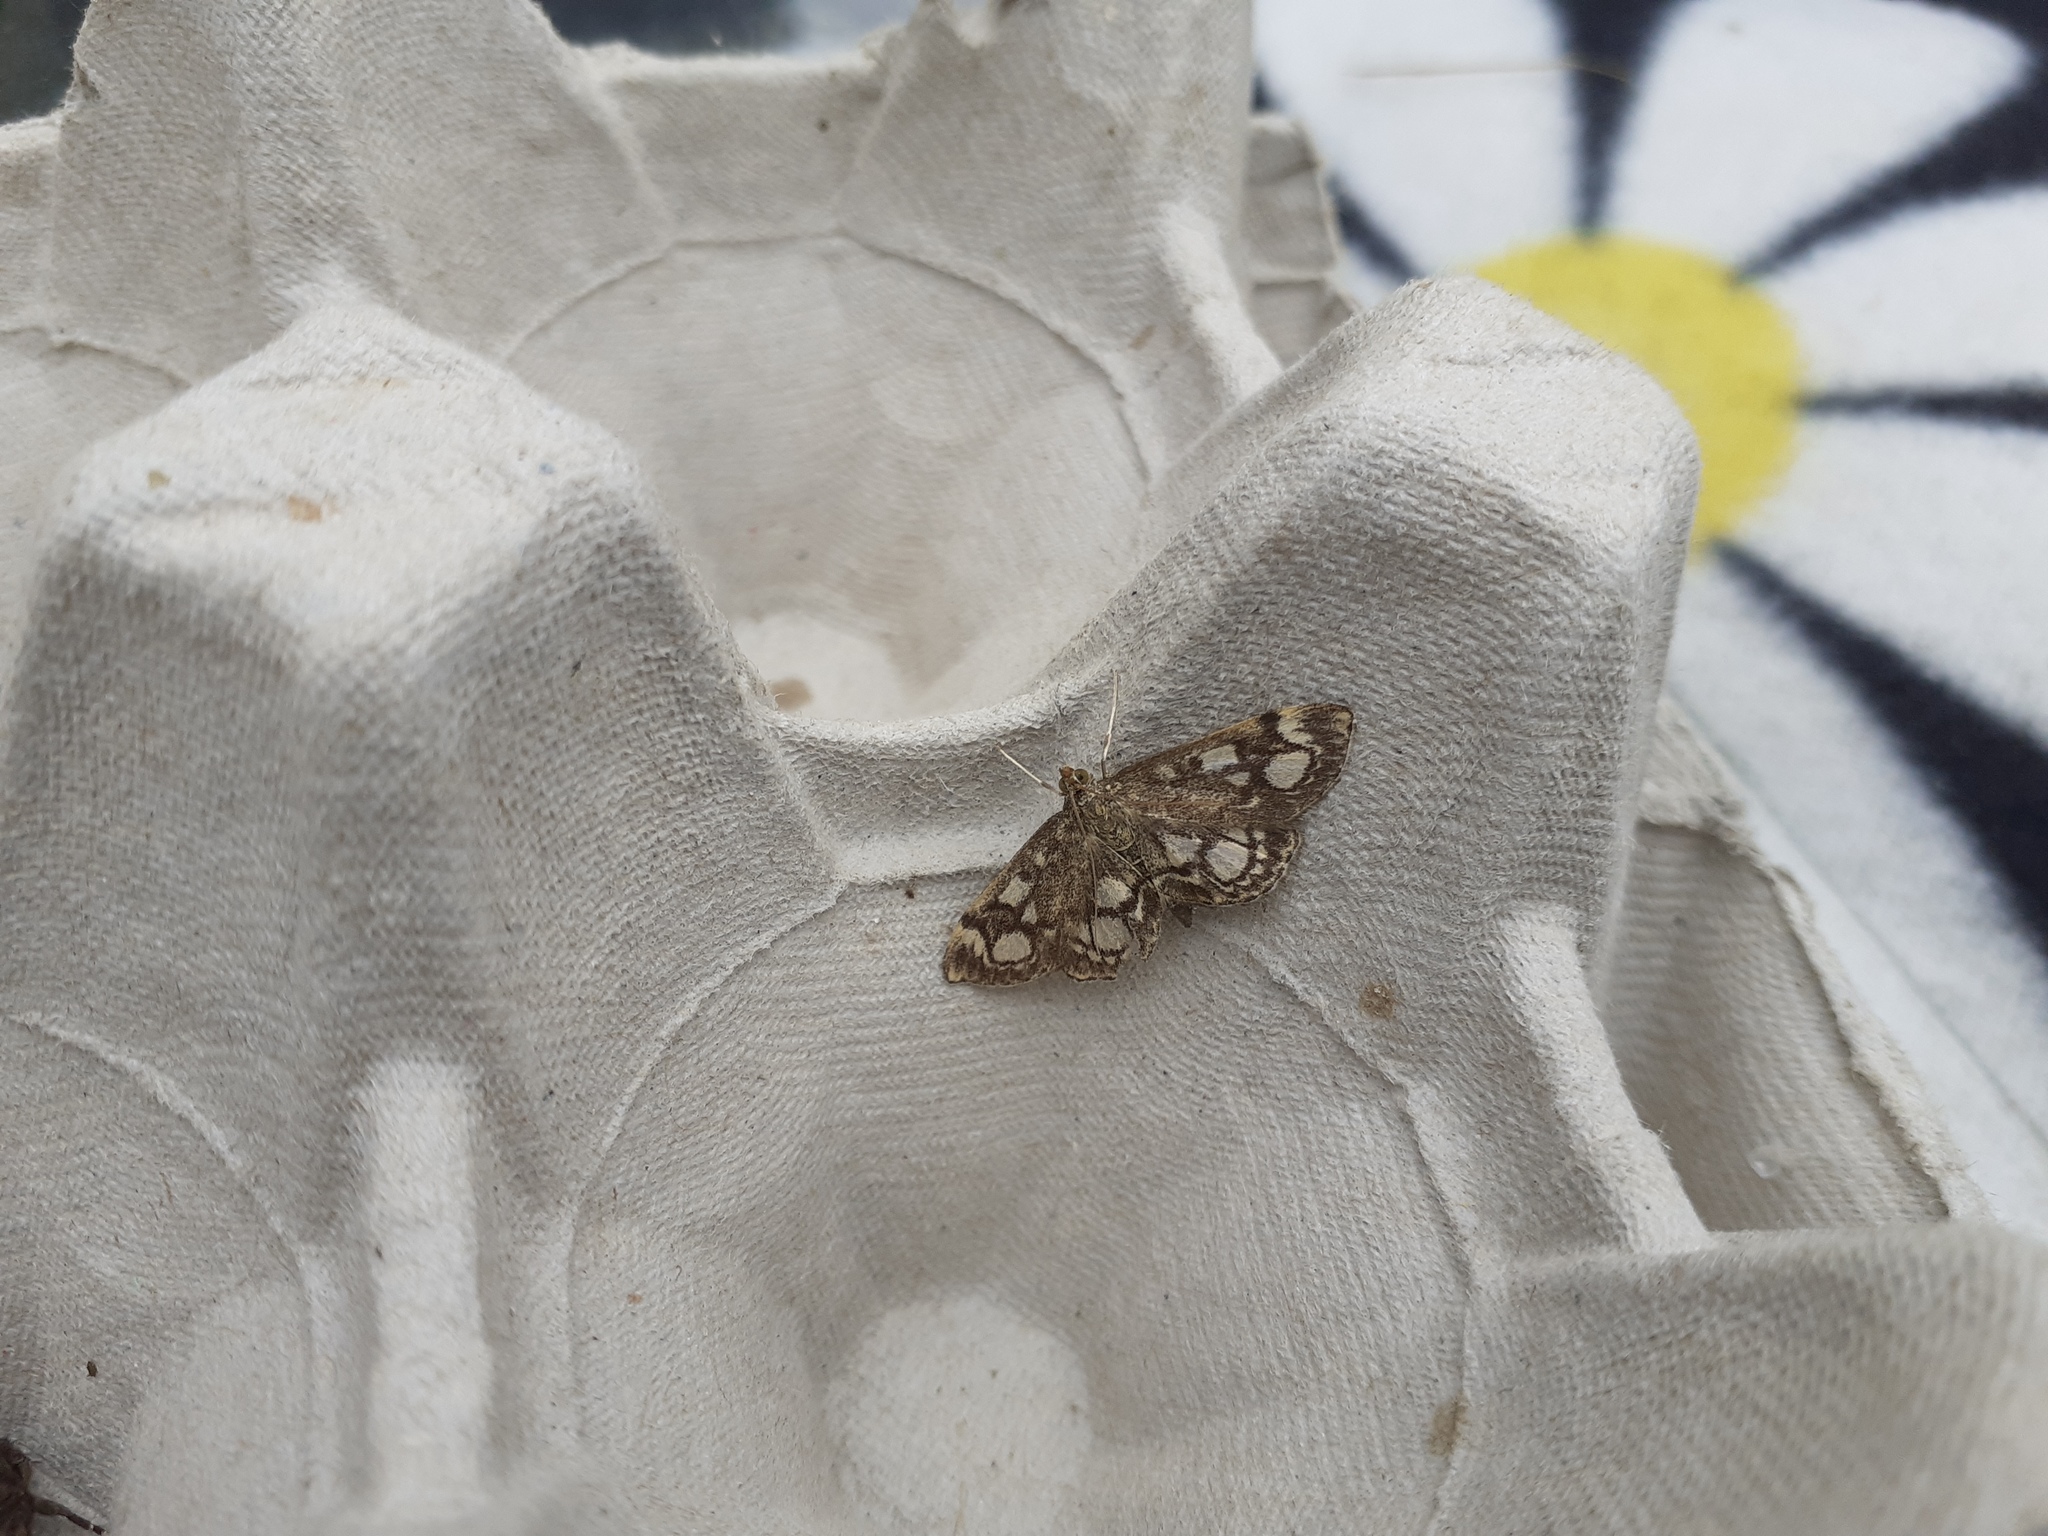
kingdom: Animalia
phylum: Arthropoda
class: Insecta
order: Lepidoptera
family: Crambidae
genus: Anania
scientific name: Anania coronata
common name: Elder pearl
